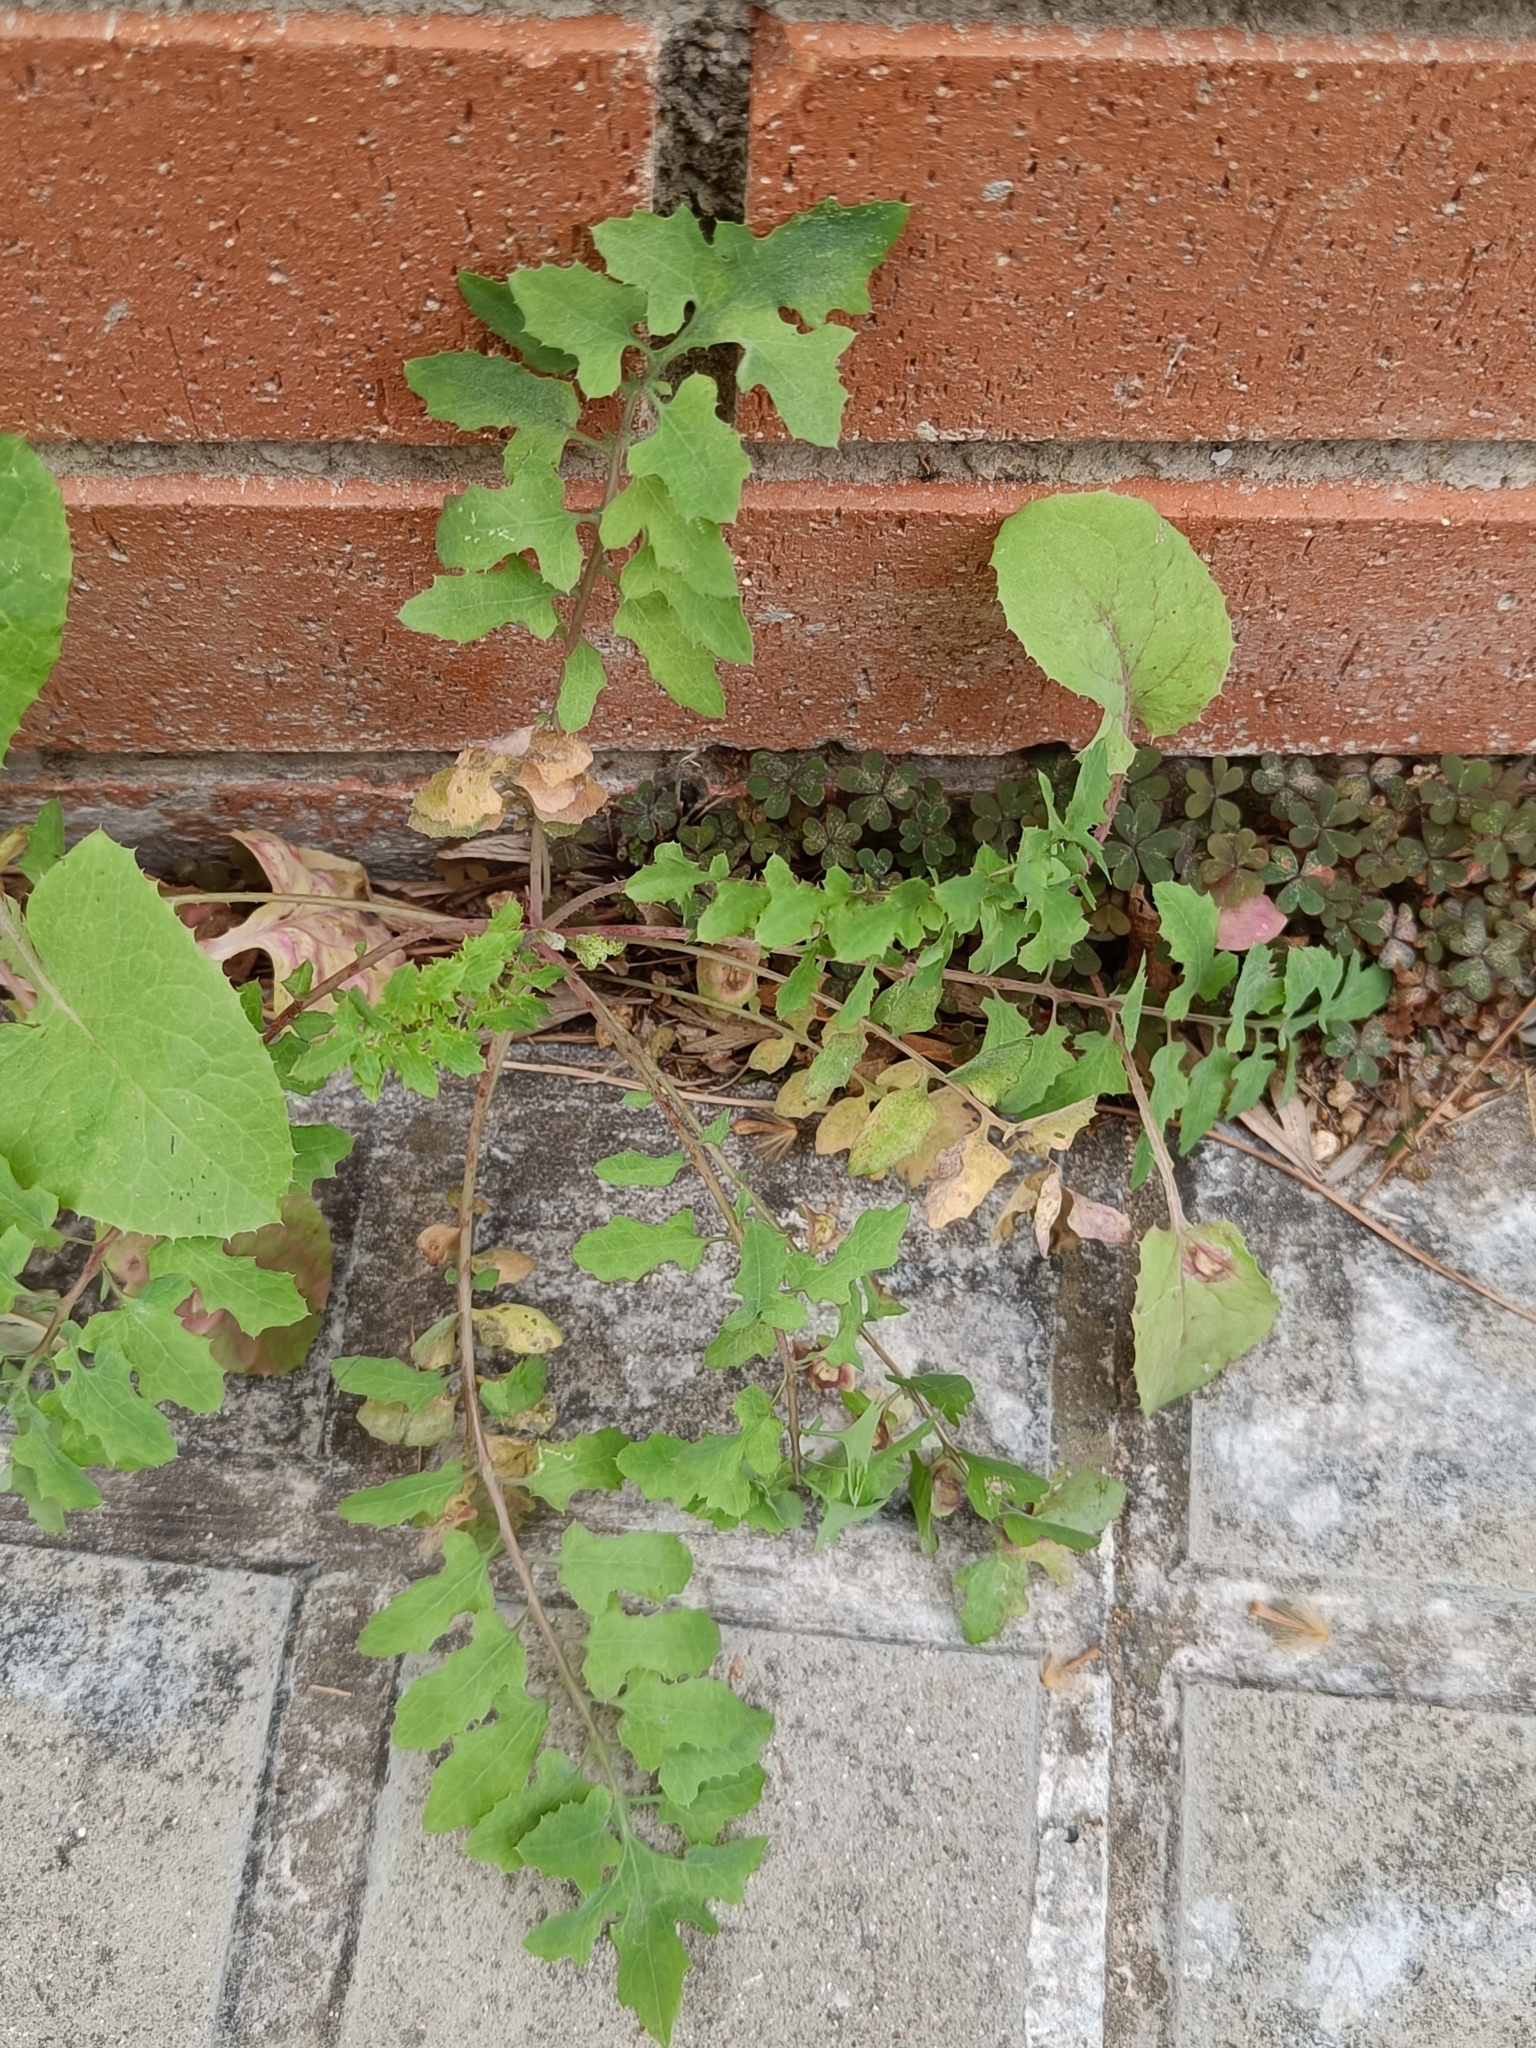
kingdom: Plantae
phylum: Tracheophyta
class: Magnoliopsida
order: Asterales
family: Asteraceae
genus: Sonchus
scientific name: Sonchus tenerrimus
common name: Clammy sowthistle
